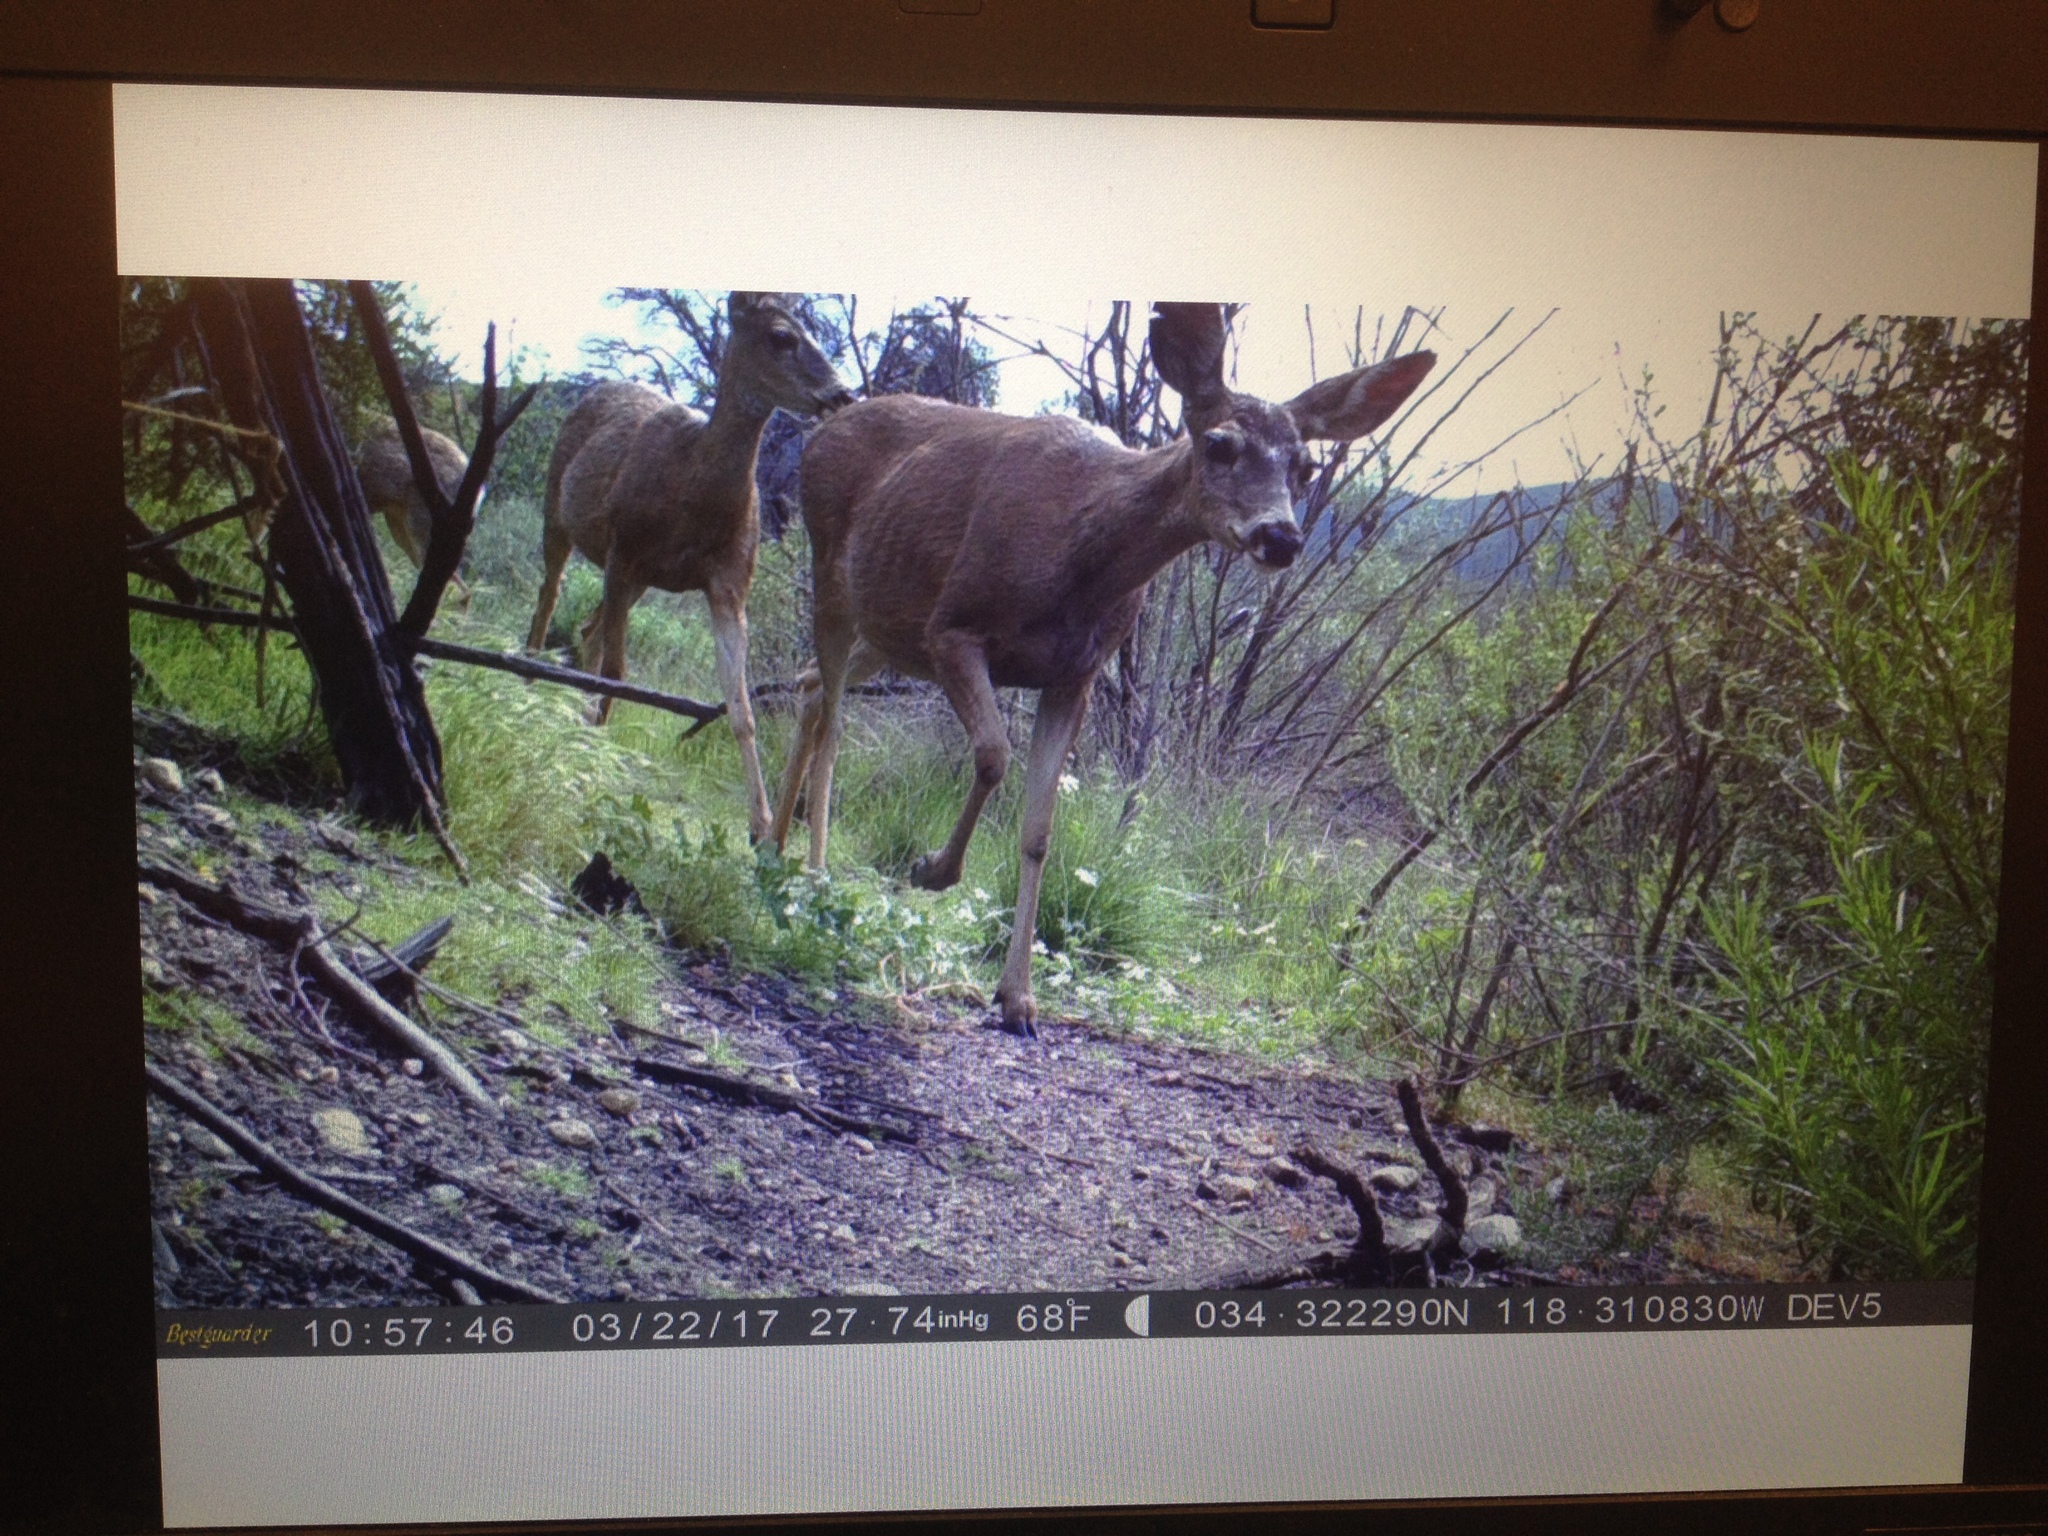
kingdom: Animalia
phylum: Chordata
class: Mammalia
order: Artiodactyla
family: Cervidae
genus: Odocoileus
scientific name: Odocoileus hemionus
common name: Mule deer
